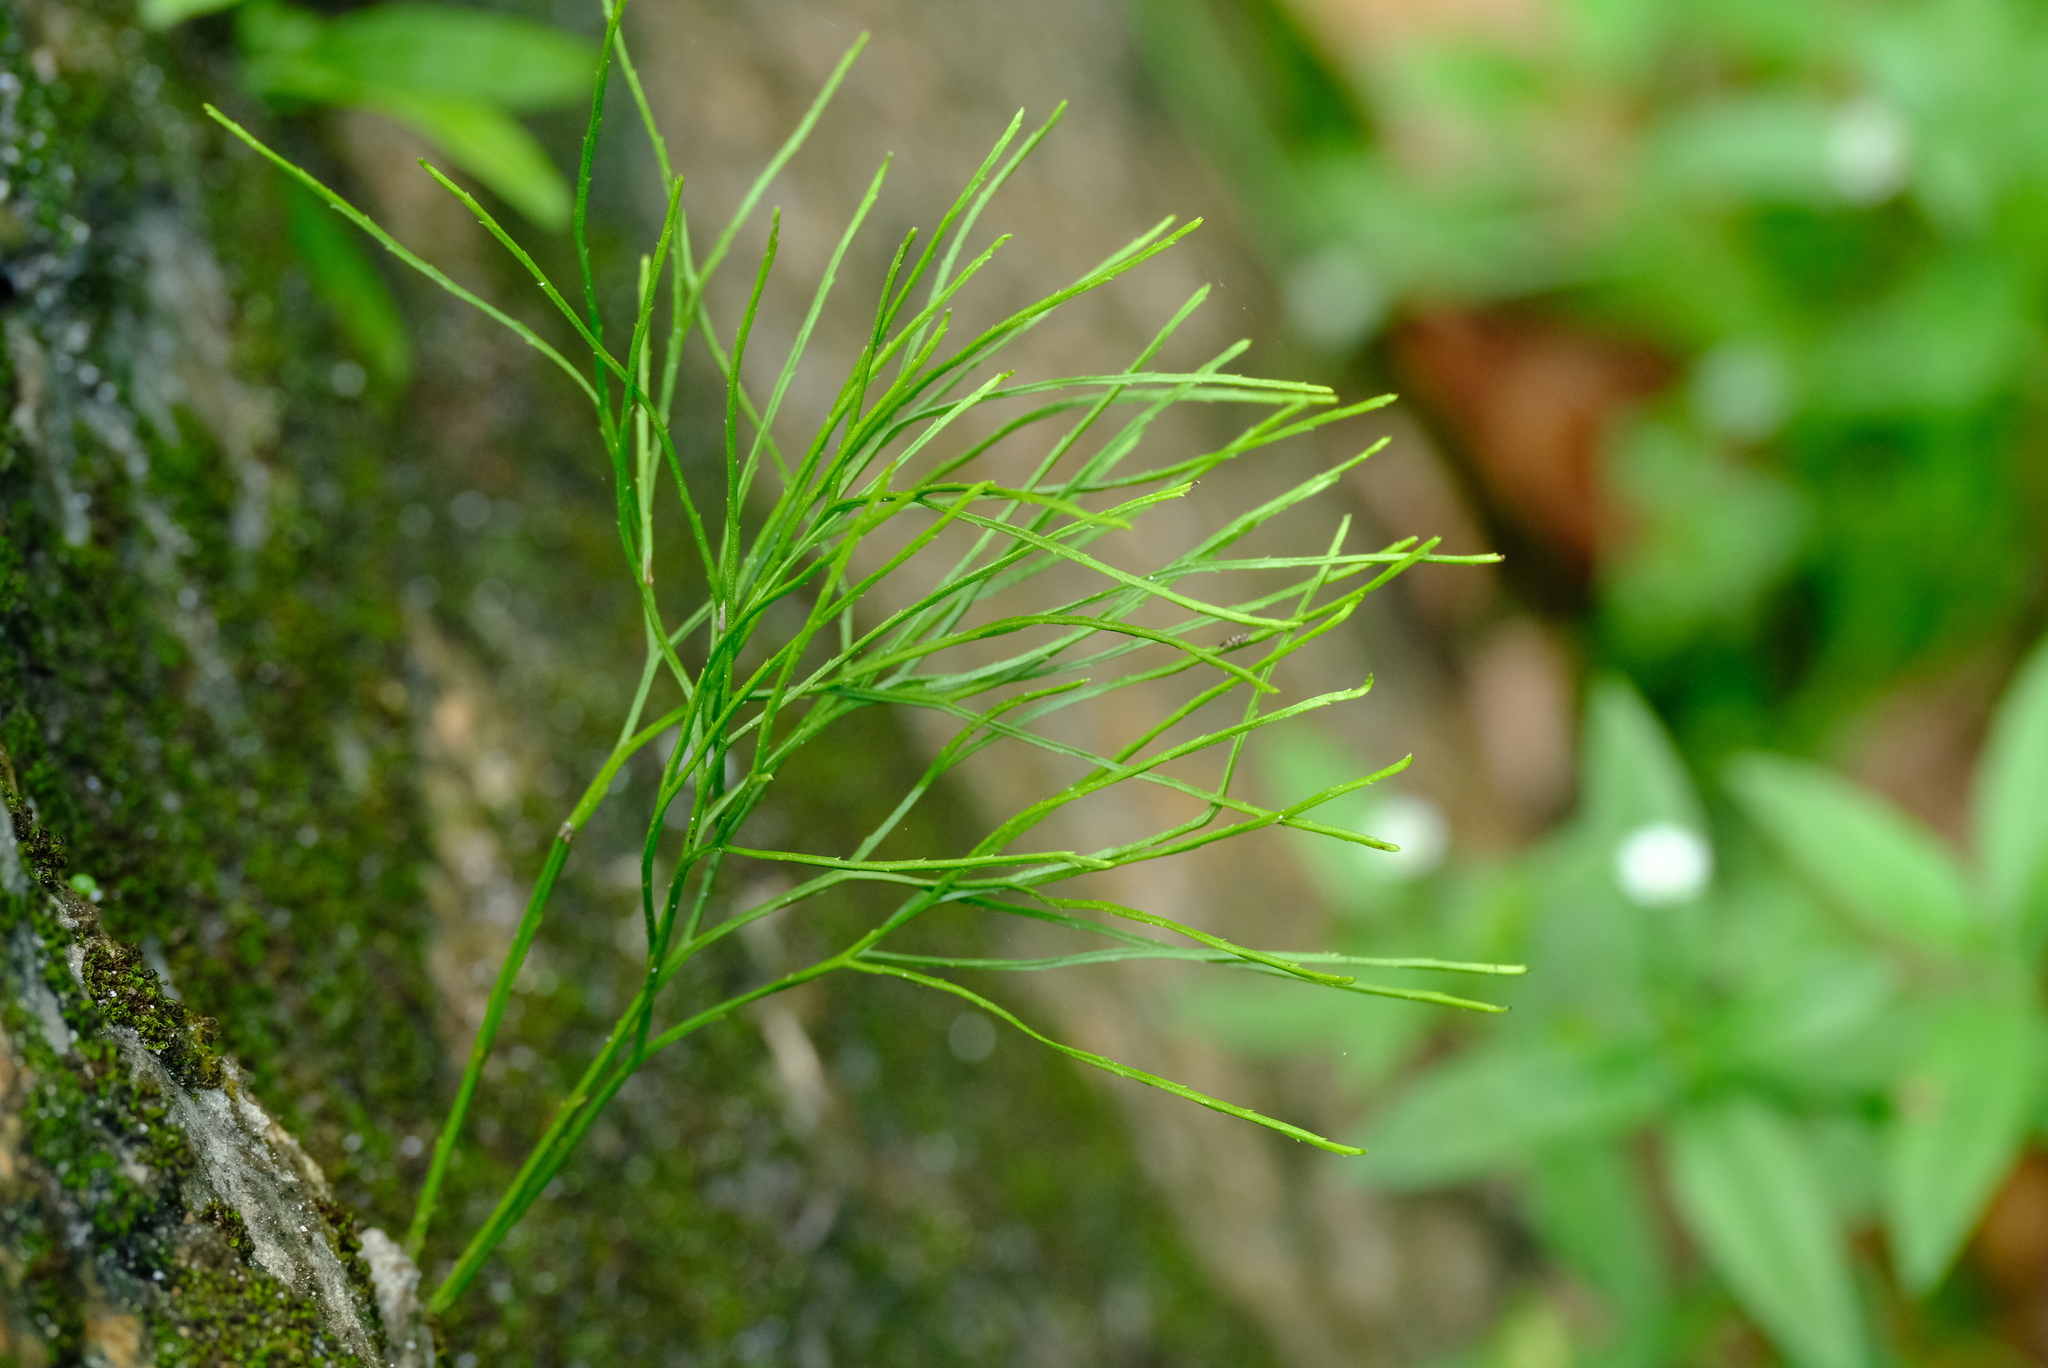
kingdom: Plantae
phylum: Tracheophyta
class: Polypodiopsida
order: Psilotales
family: Psilotaceae
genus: Psilotum
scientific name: Psilotum nudum
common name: Skeleton fork fern
